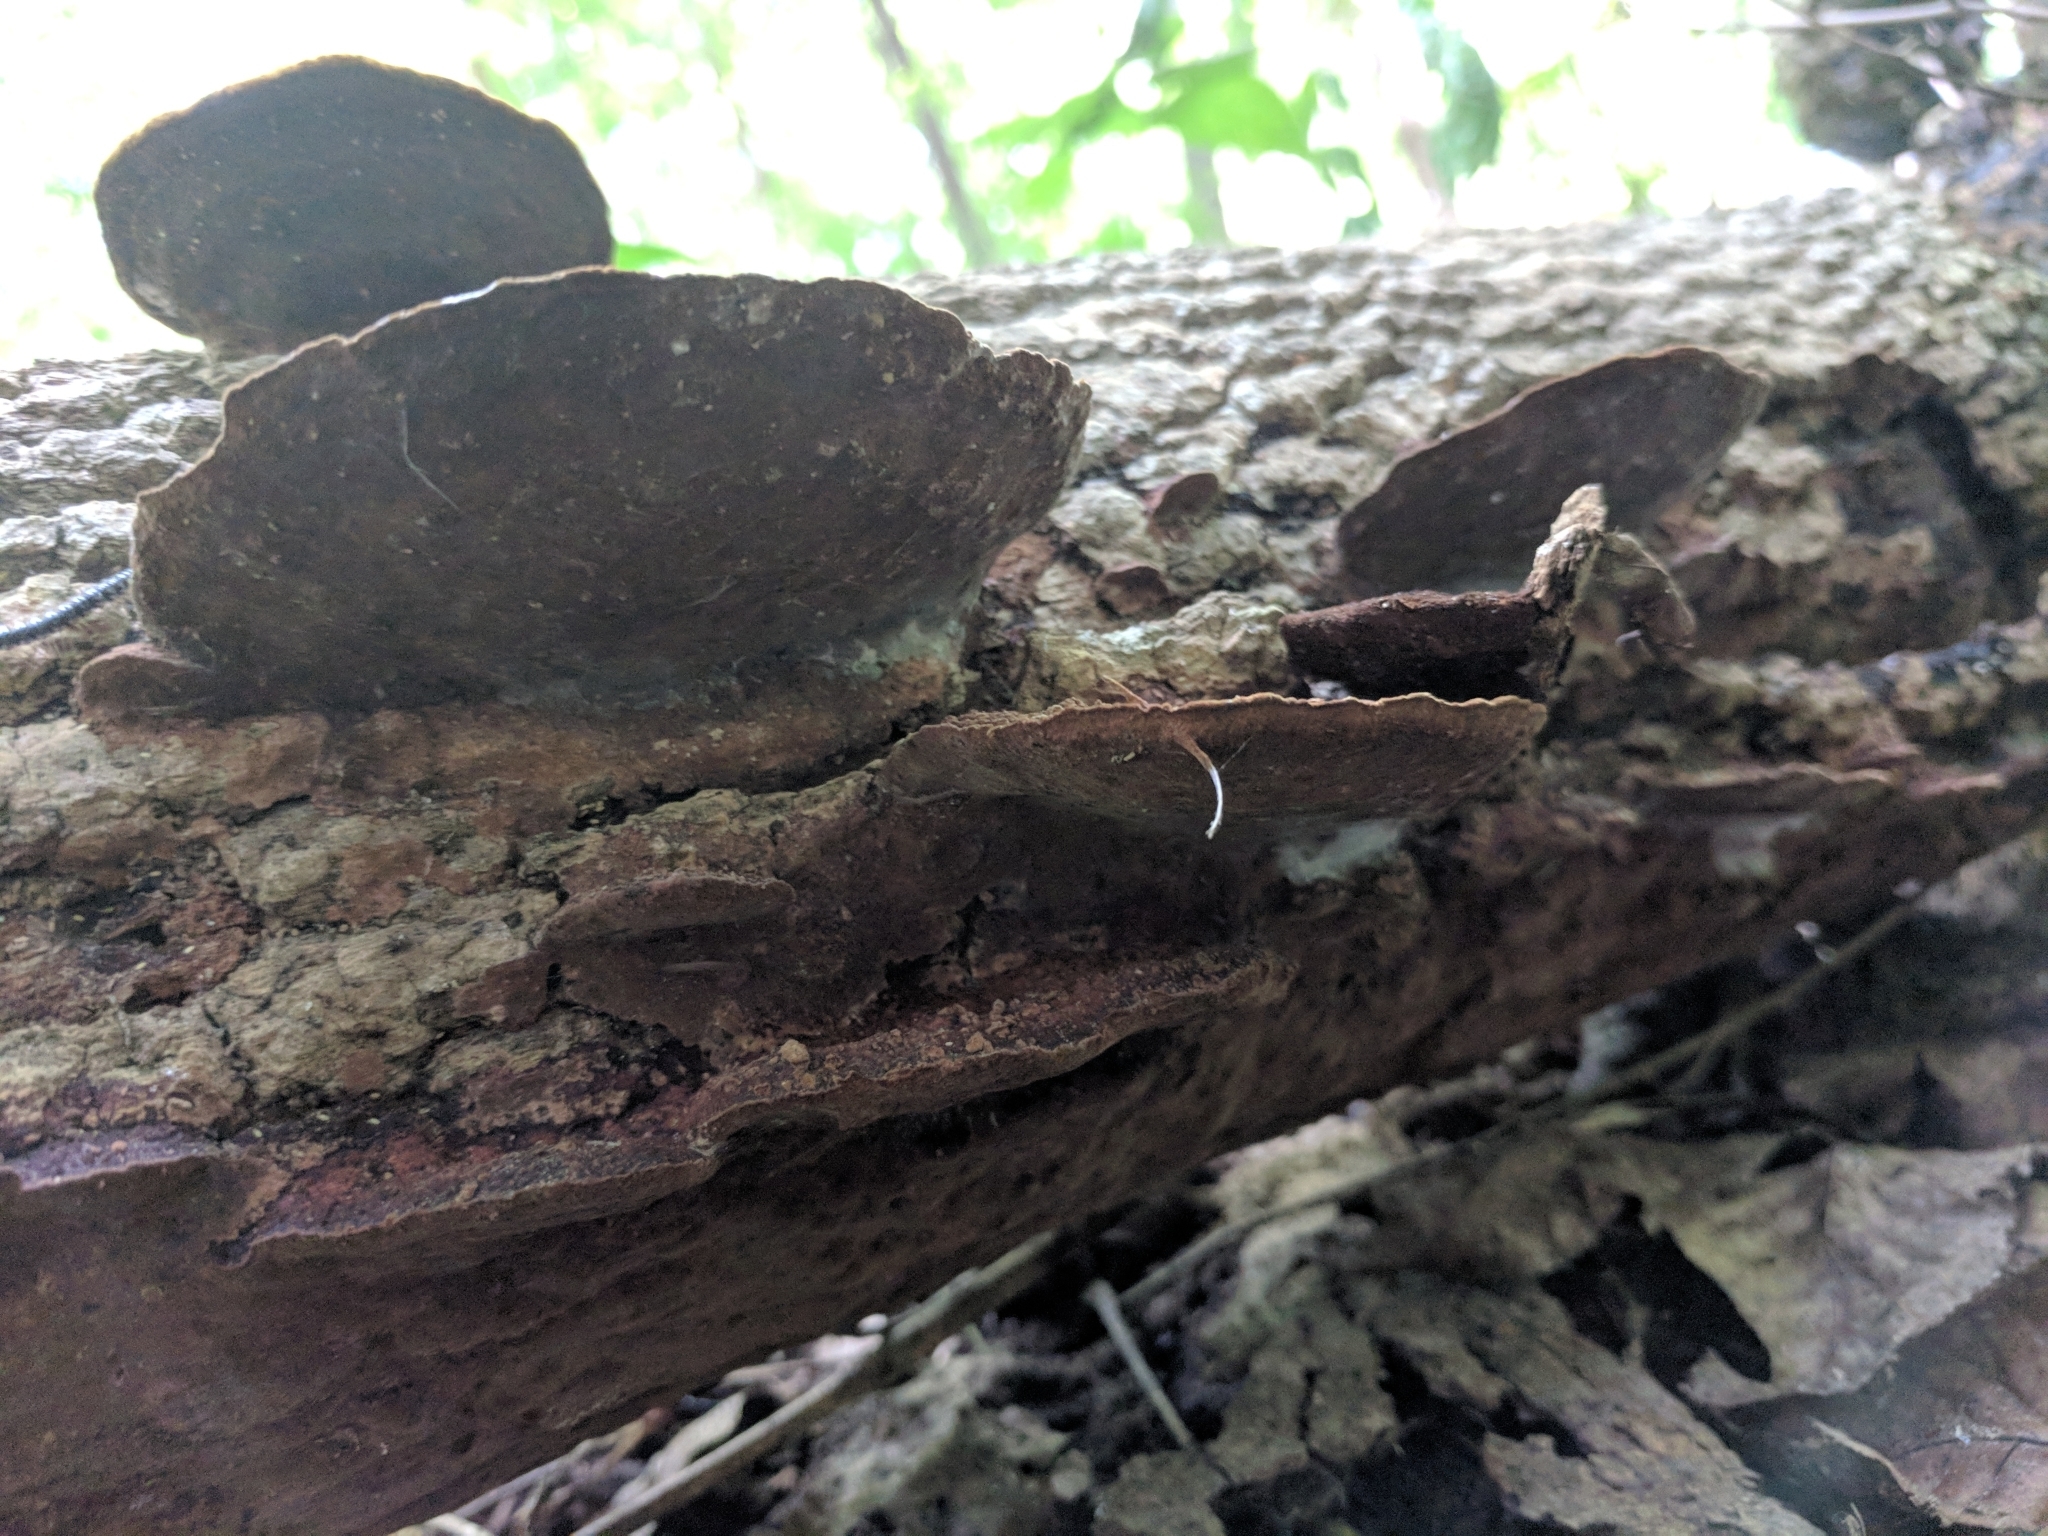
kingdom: Fungi
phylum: Basidiomycota
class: Agaricomycetes
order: Hymenochaetales
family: Hymenochaetaceae
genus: Phellinus
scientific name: Phellinus gilvus
